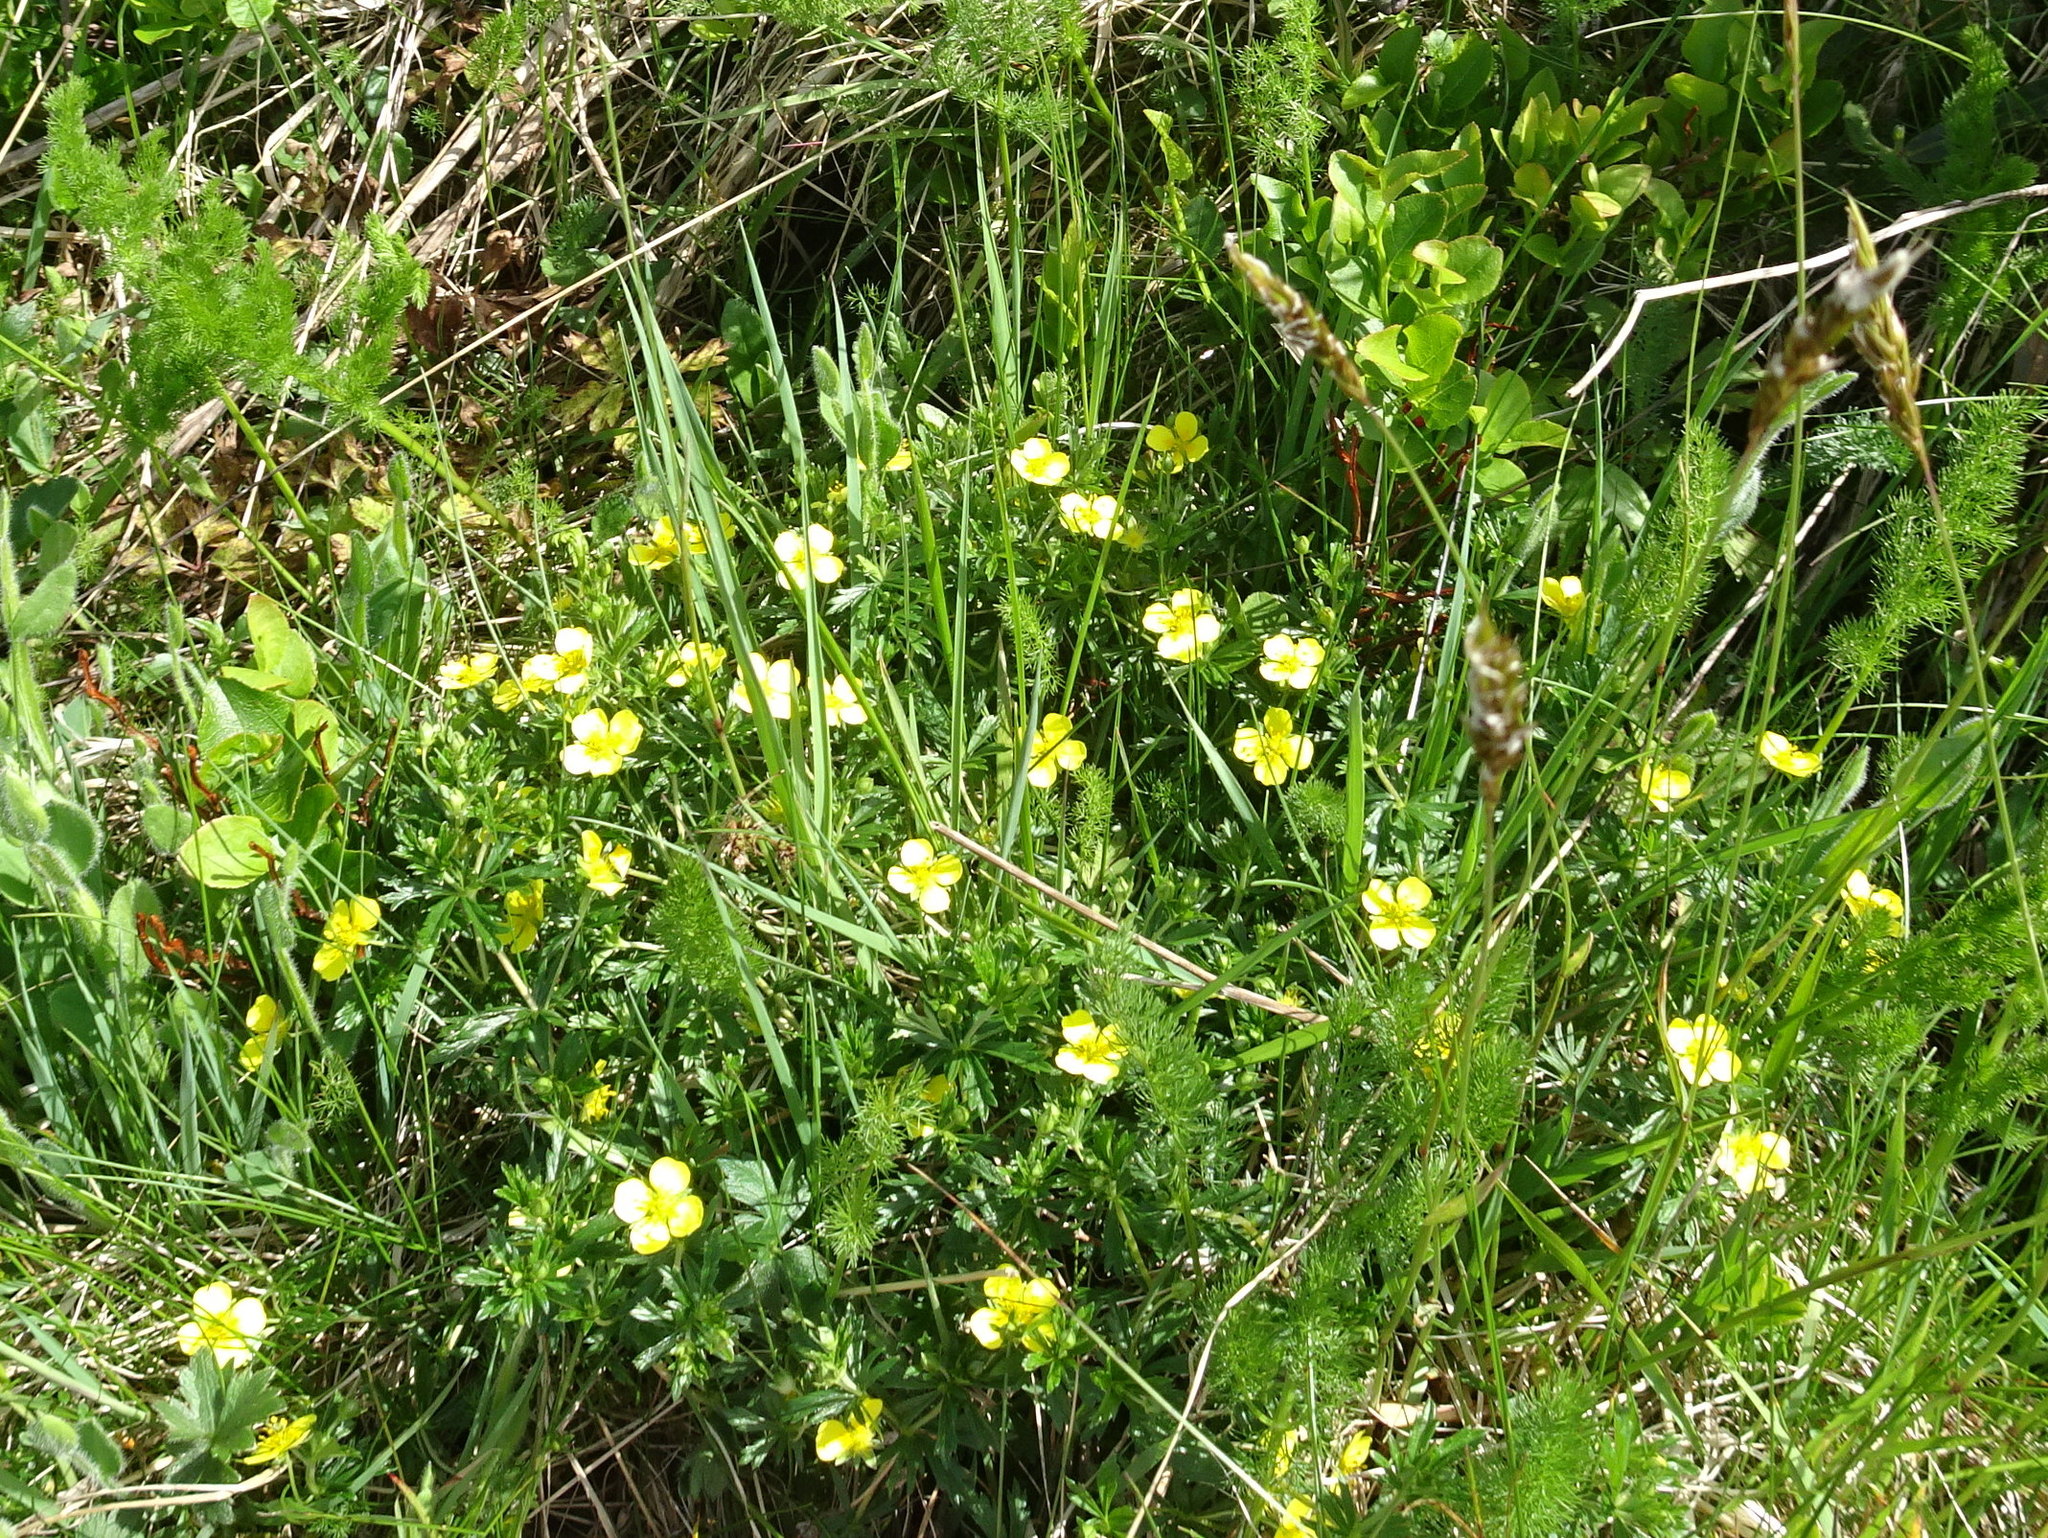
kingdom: Plantae
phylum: Tracheophyta
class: Magnoliopsida
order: Rosales
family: Rosaceae
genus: Potentilla
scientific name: Potentilla erecta
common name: Tormentil
